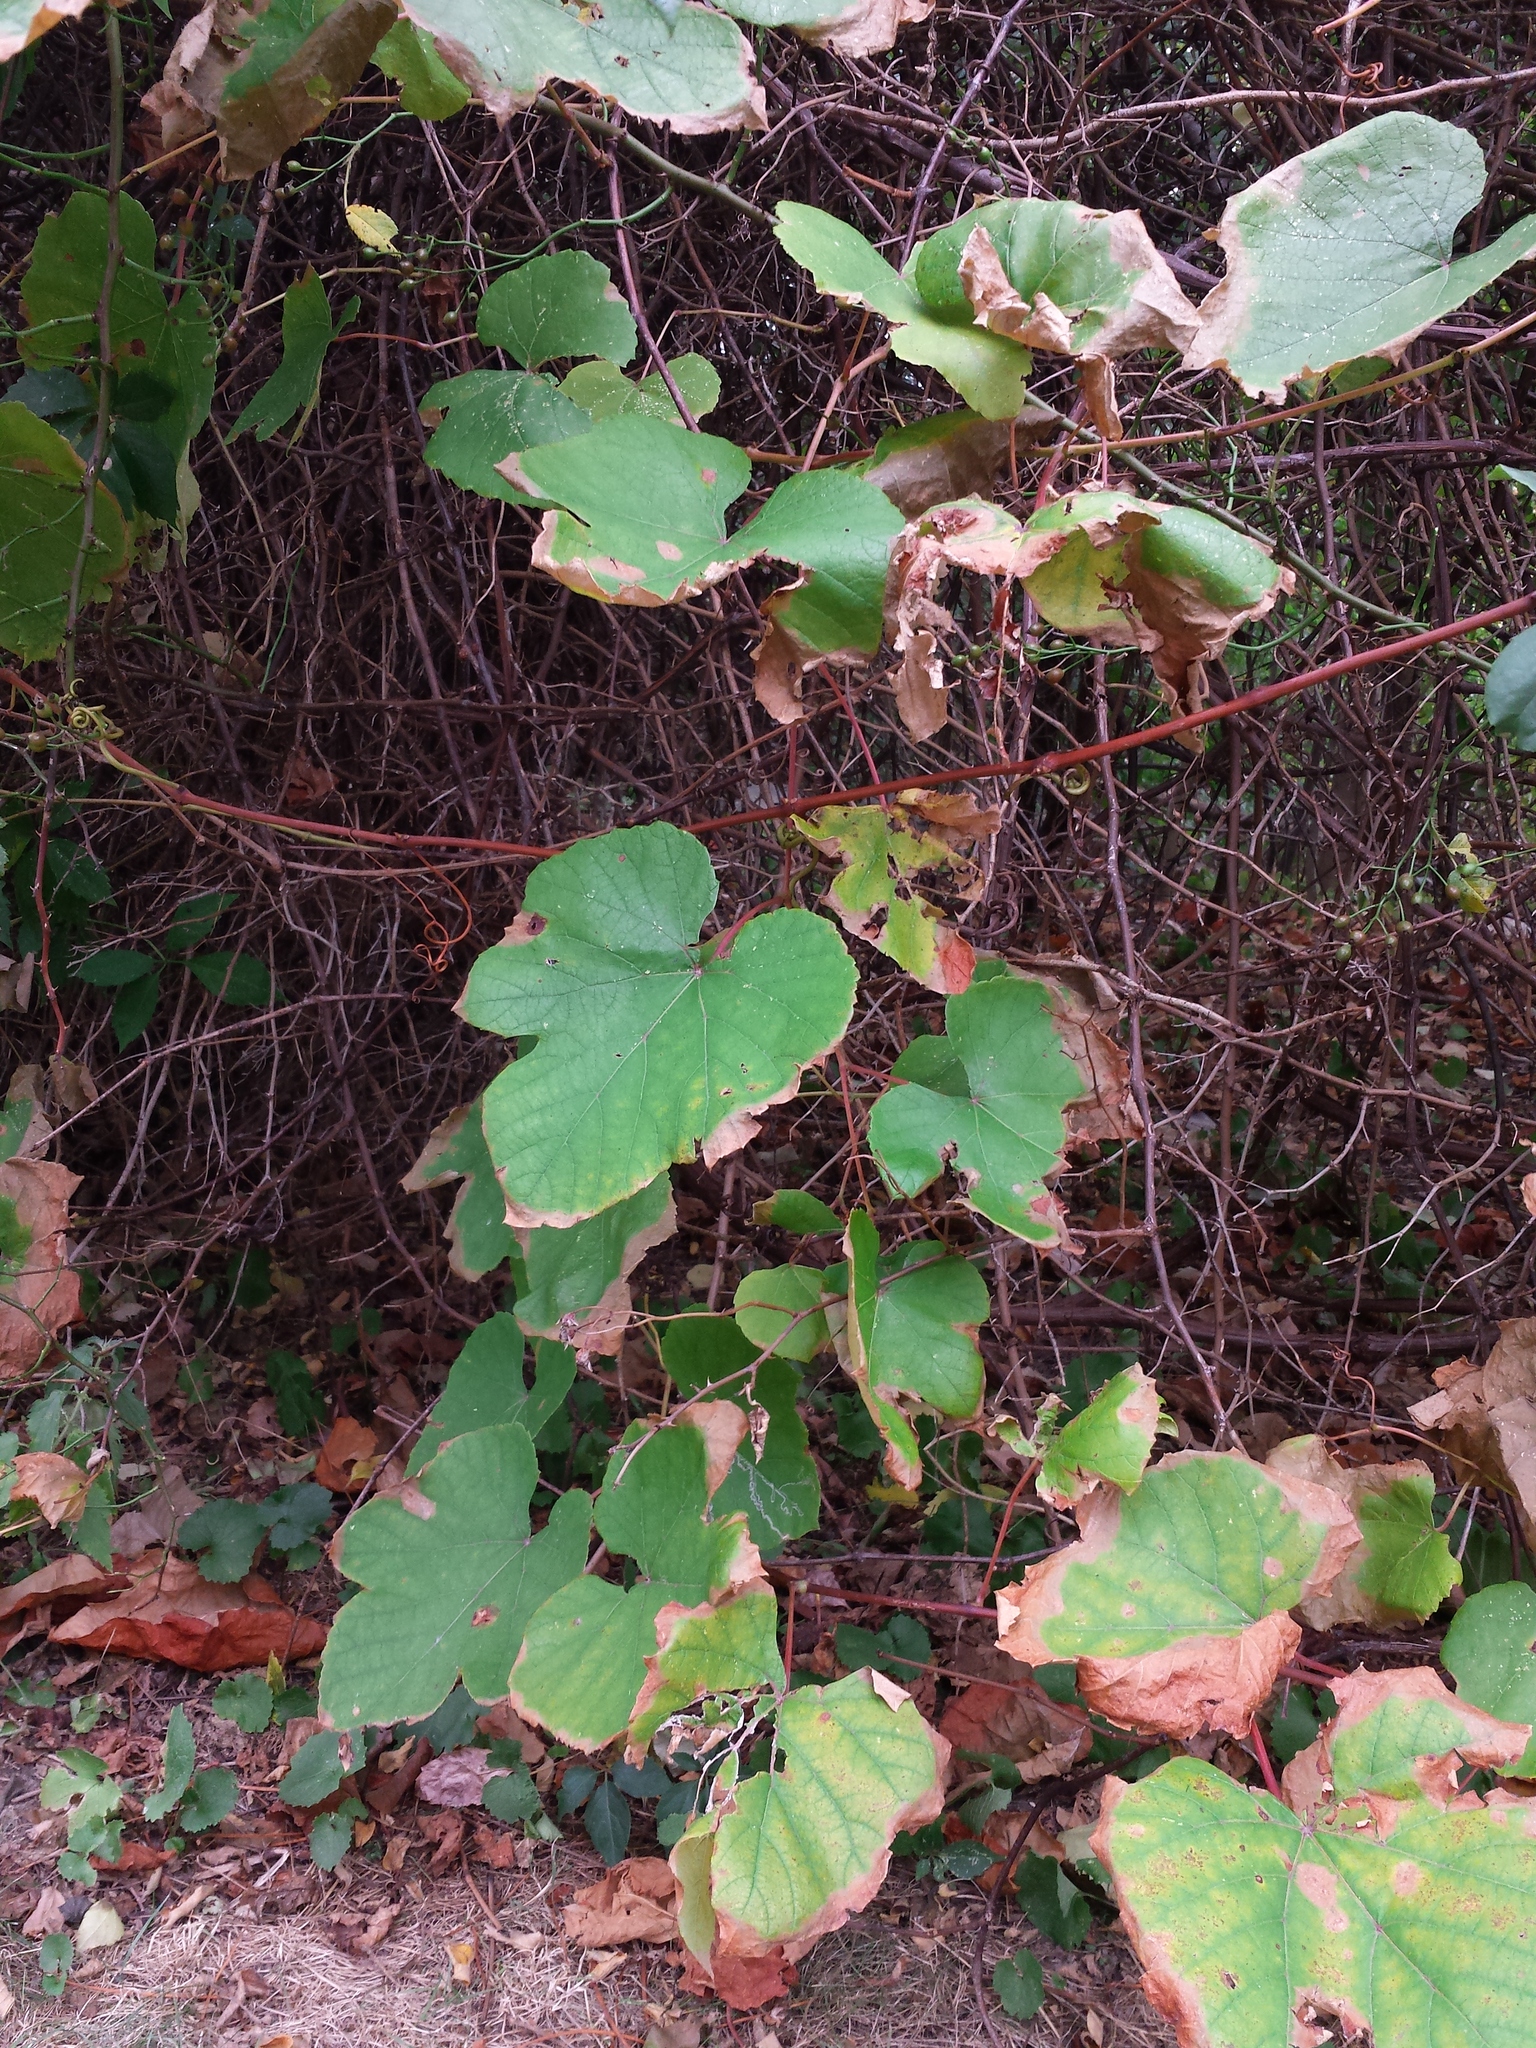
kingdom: Plantae
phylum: Tracheophyta
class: Magnoliopsida
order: Vitales
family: Vitaceae
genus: Vitis
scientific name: Vitis aestivalis
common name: Pigeon grape
